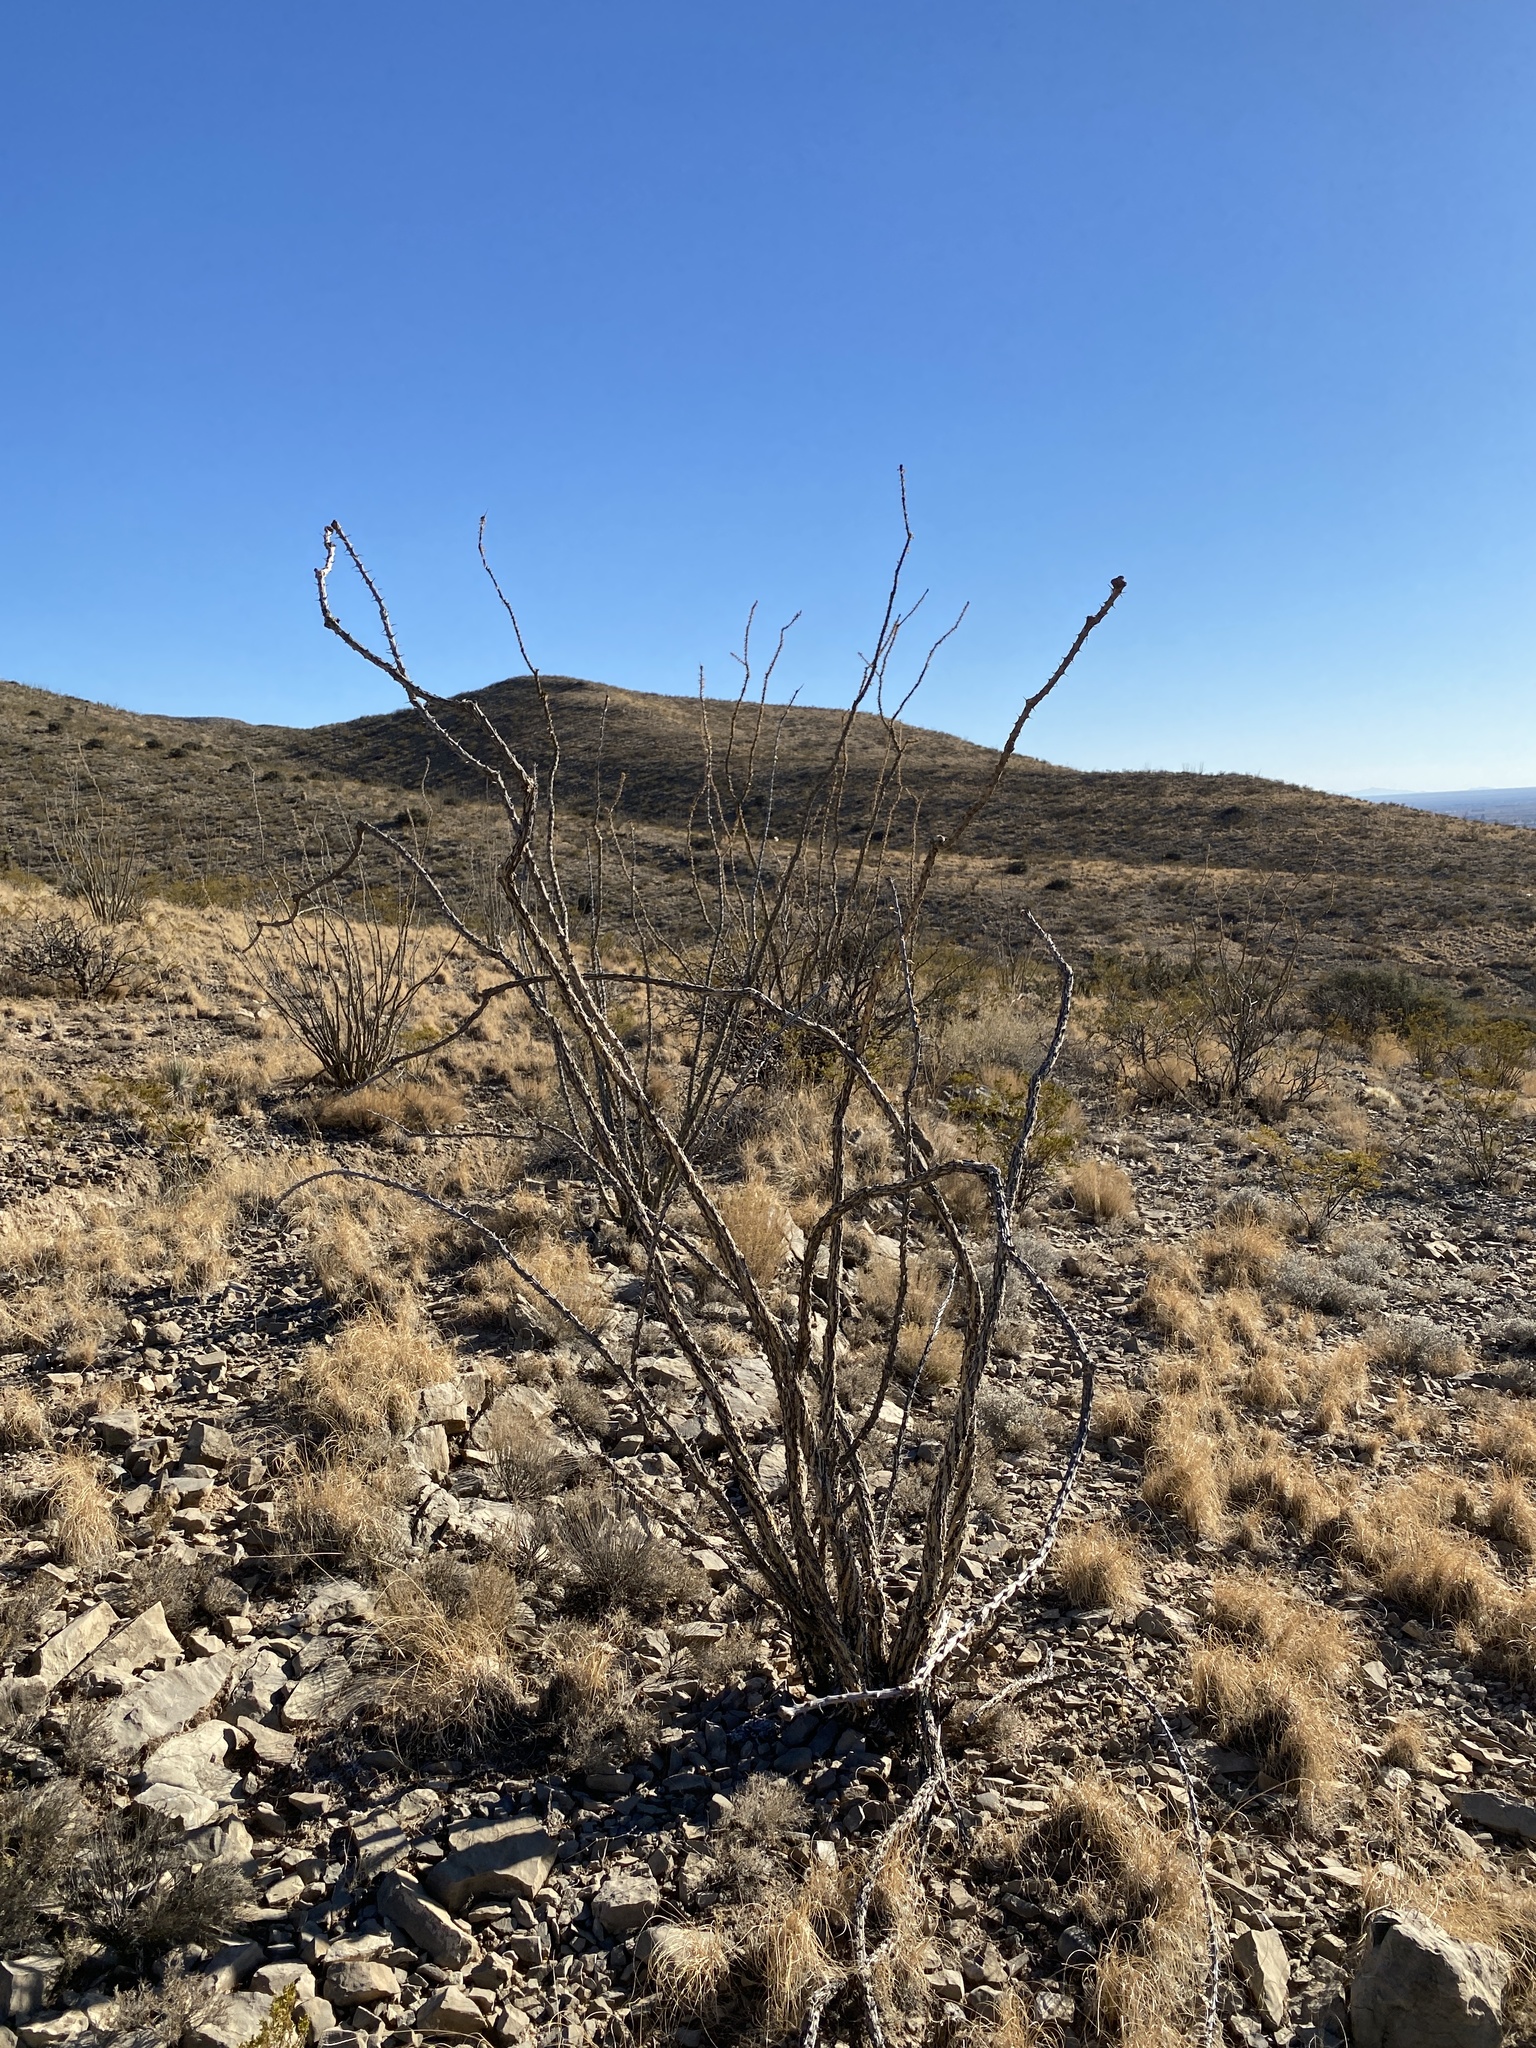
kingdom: Plantae
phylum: Tracheophyta
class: Magnoliopsida
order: Ericales
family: Fouquieriaceae
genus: Fouquieria
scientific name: Fouquieria splendens
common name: Vine-cactus
